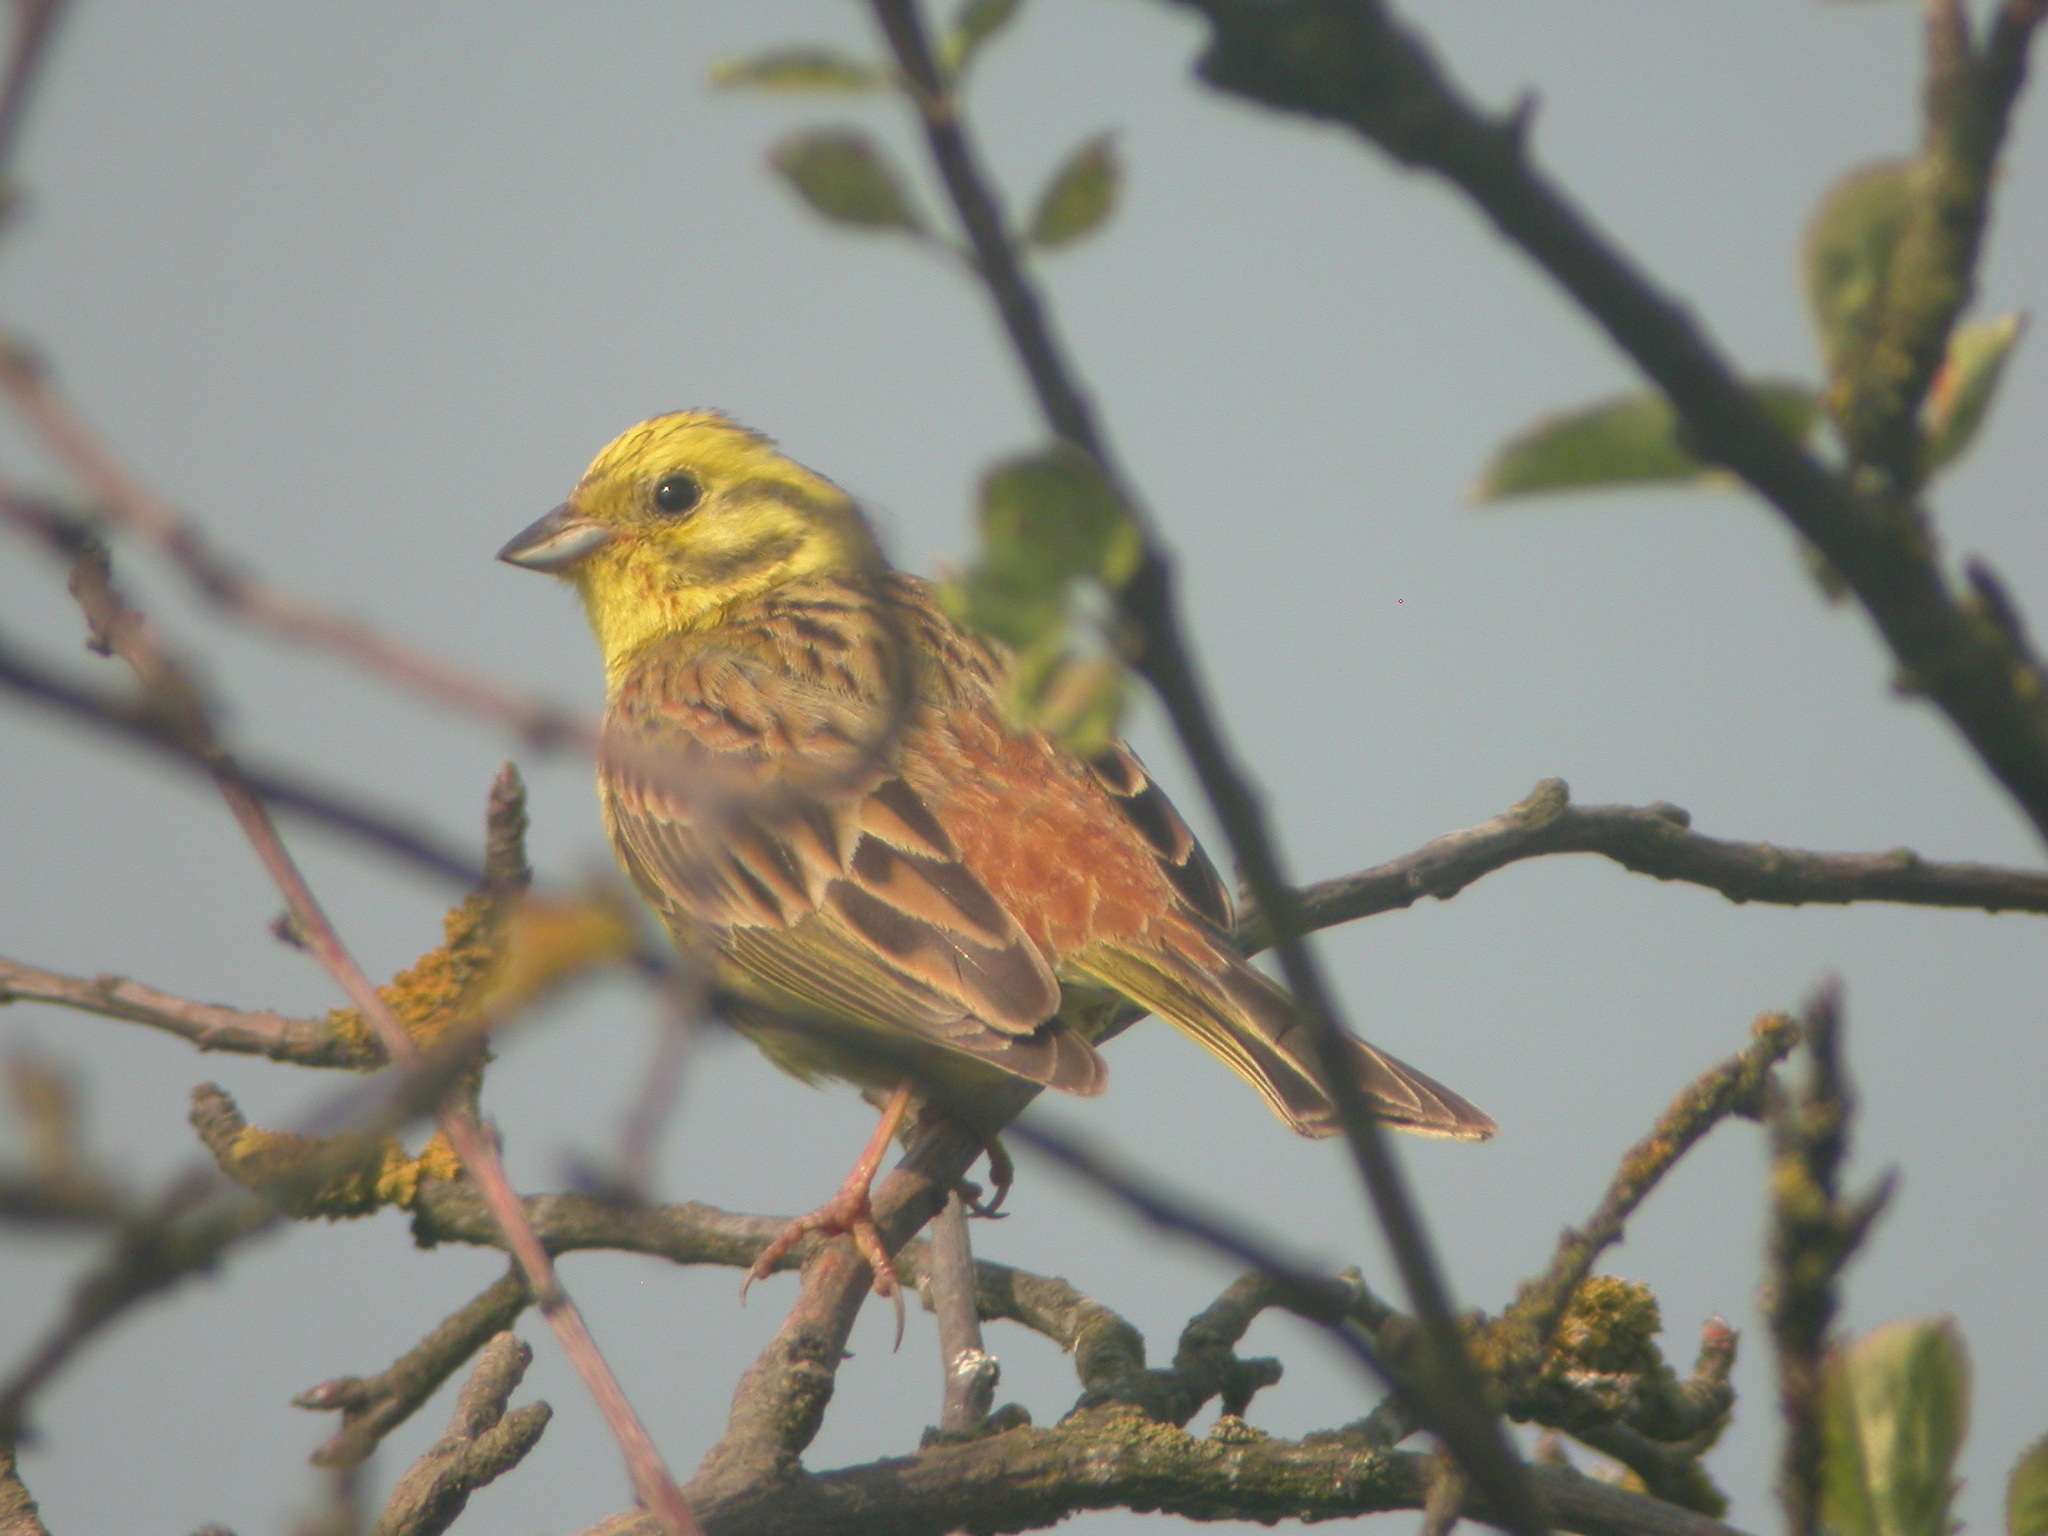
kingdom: Animalia
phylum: Chordata
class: Aves
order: Passeriformes
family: Emberizidae
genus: Emberiza
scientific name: Emberiza citrinella
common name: Yellowhammer
